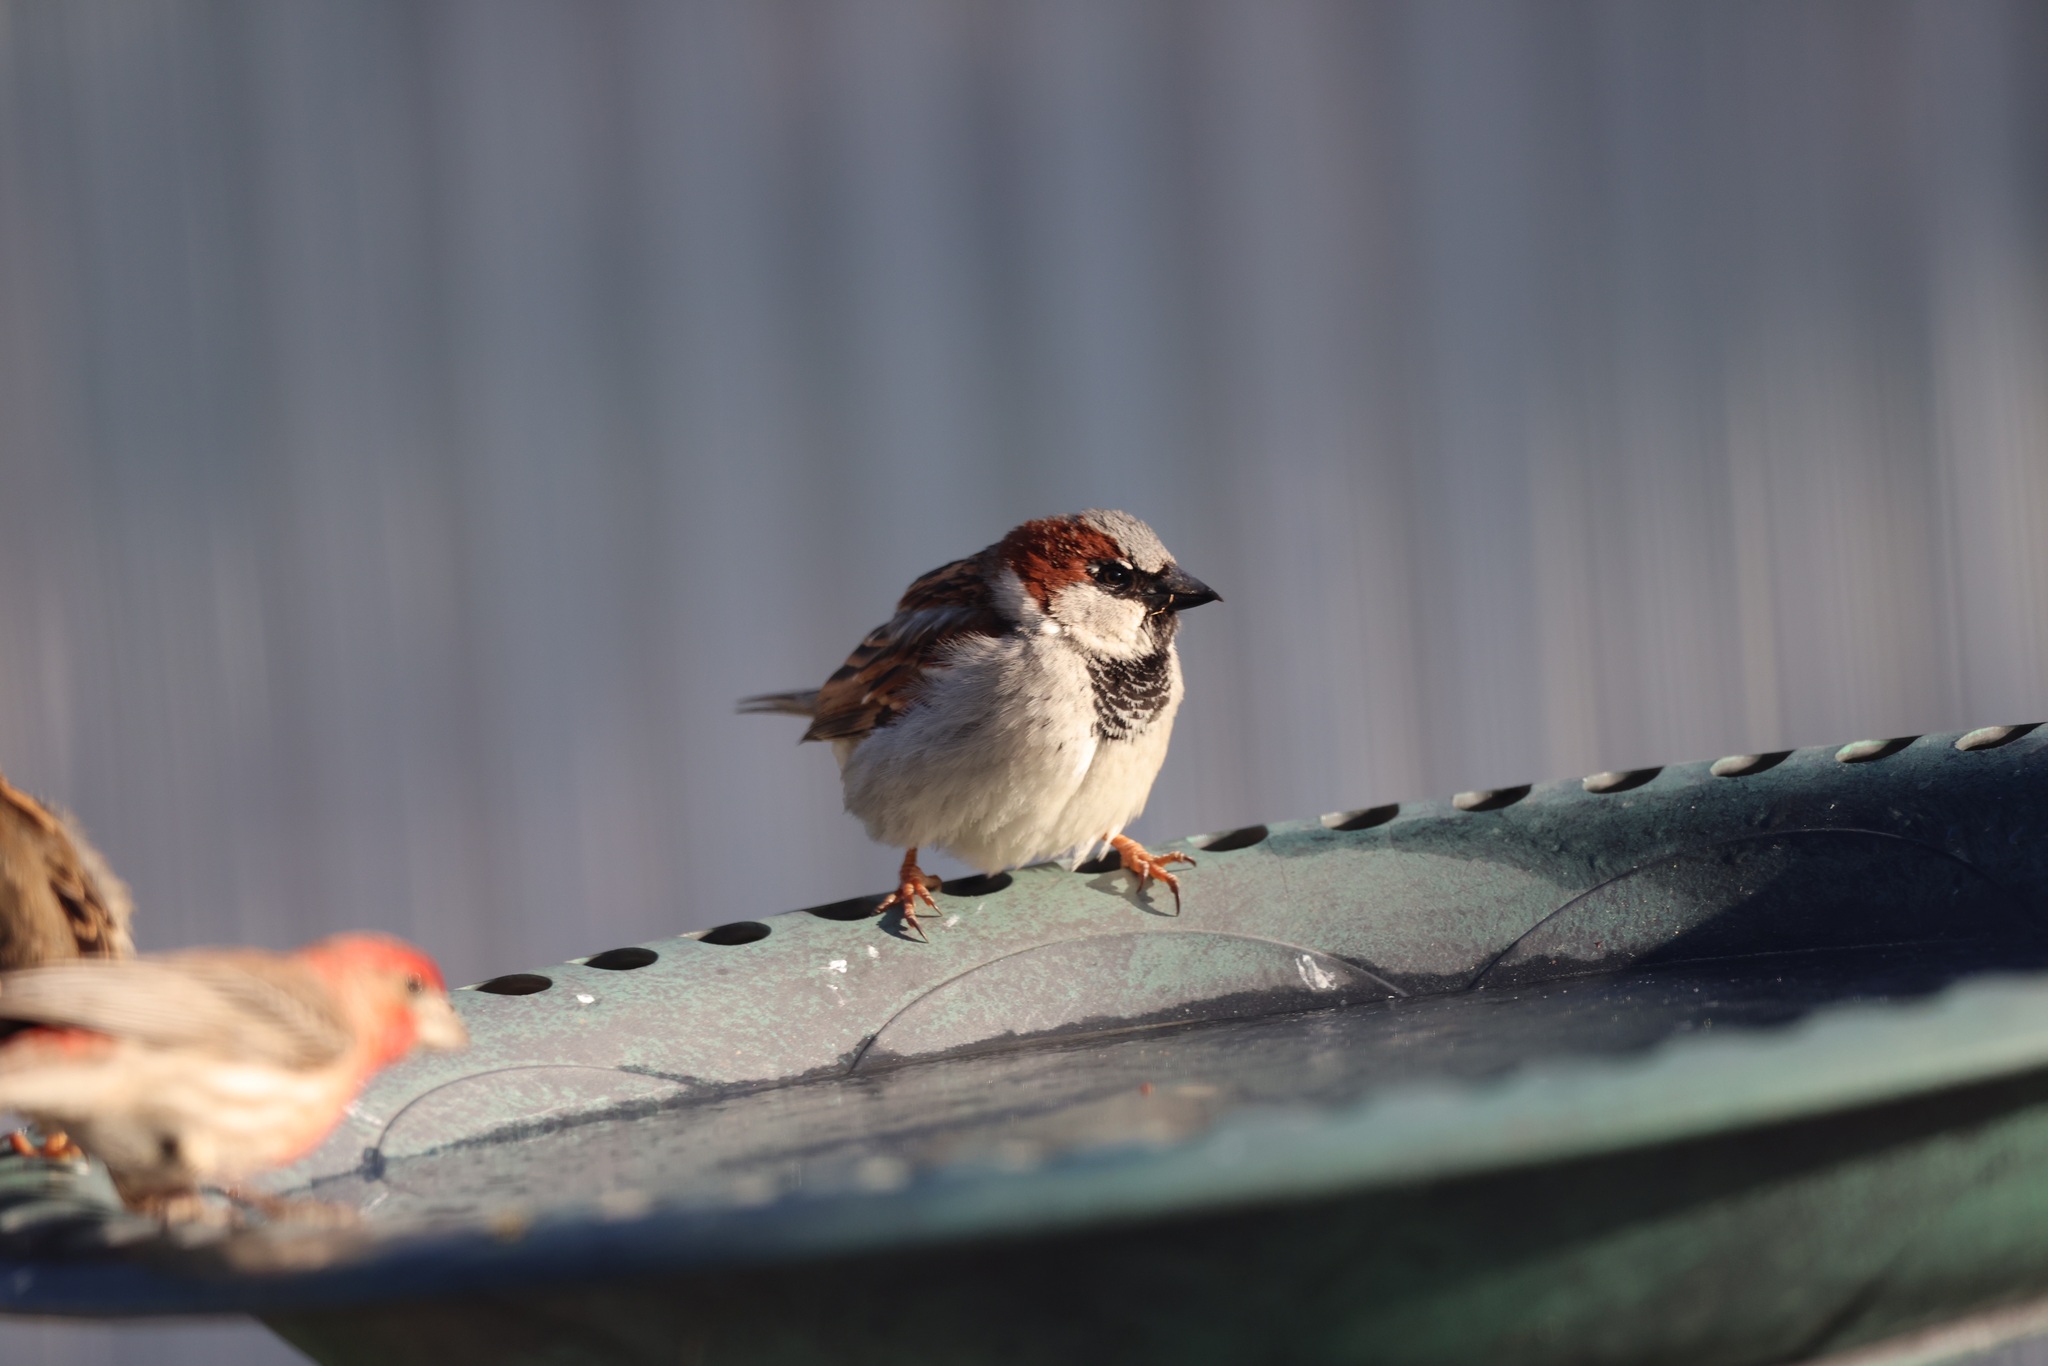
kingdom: Animalia
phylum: Chordata
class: Aves
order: Passeriformes
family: Passeridae
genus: Passer
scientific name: Passer domesticus
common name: House sparrow
